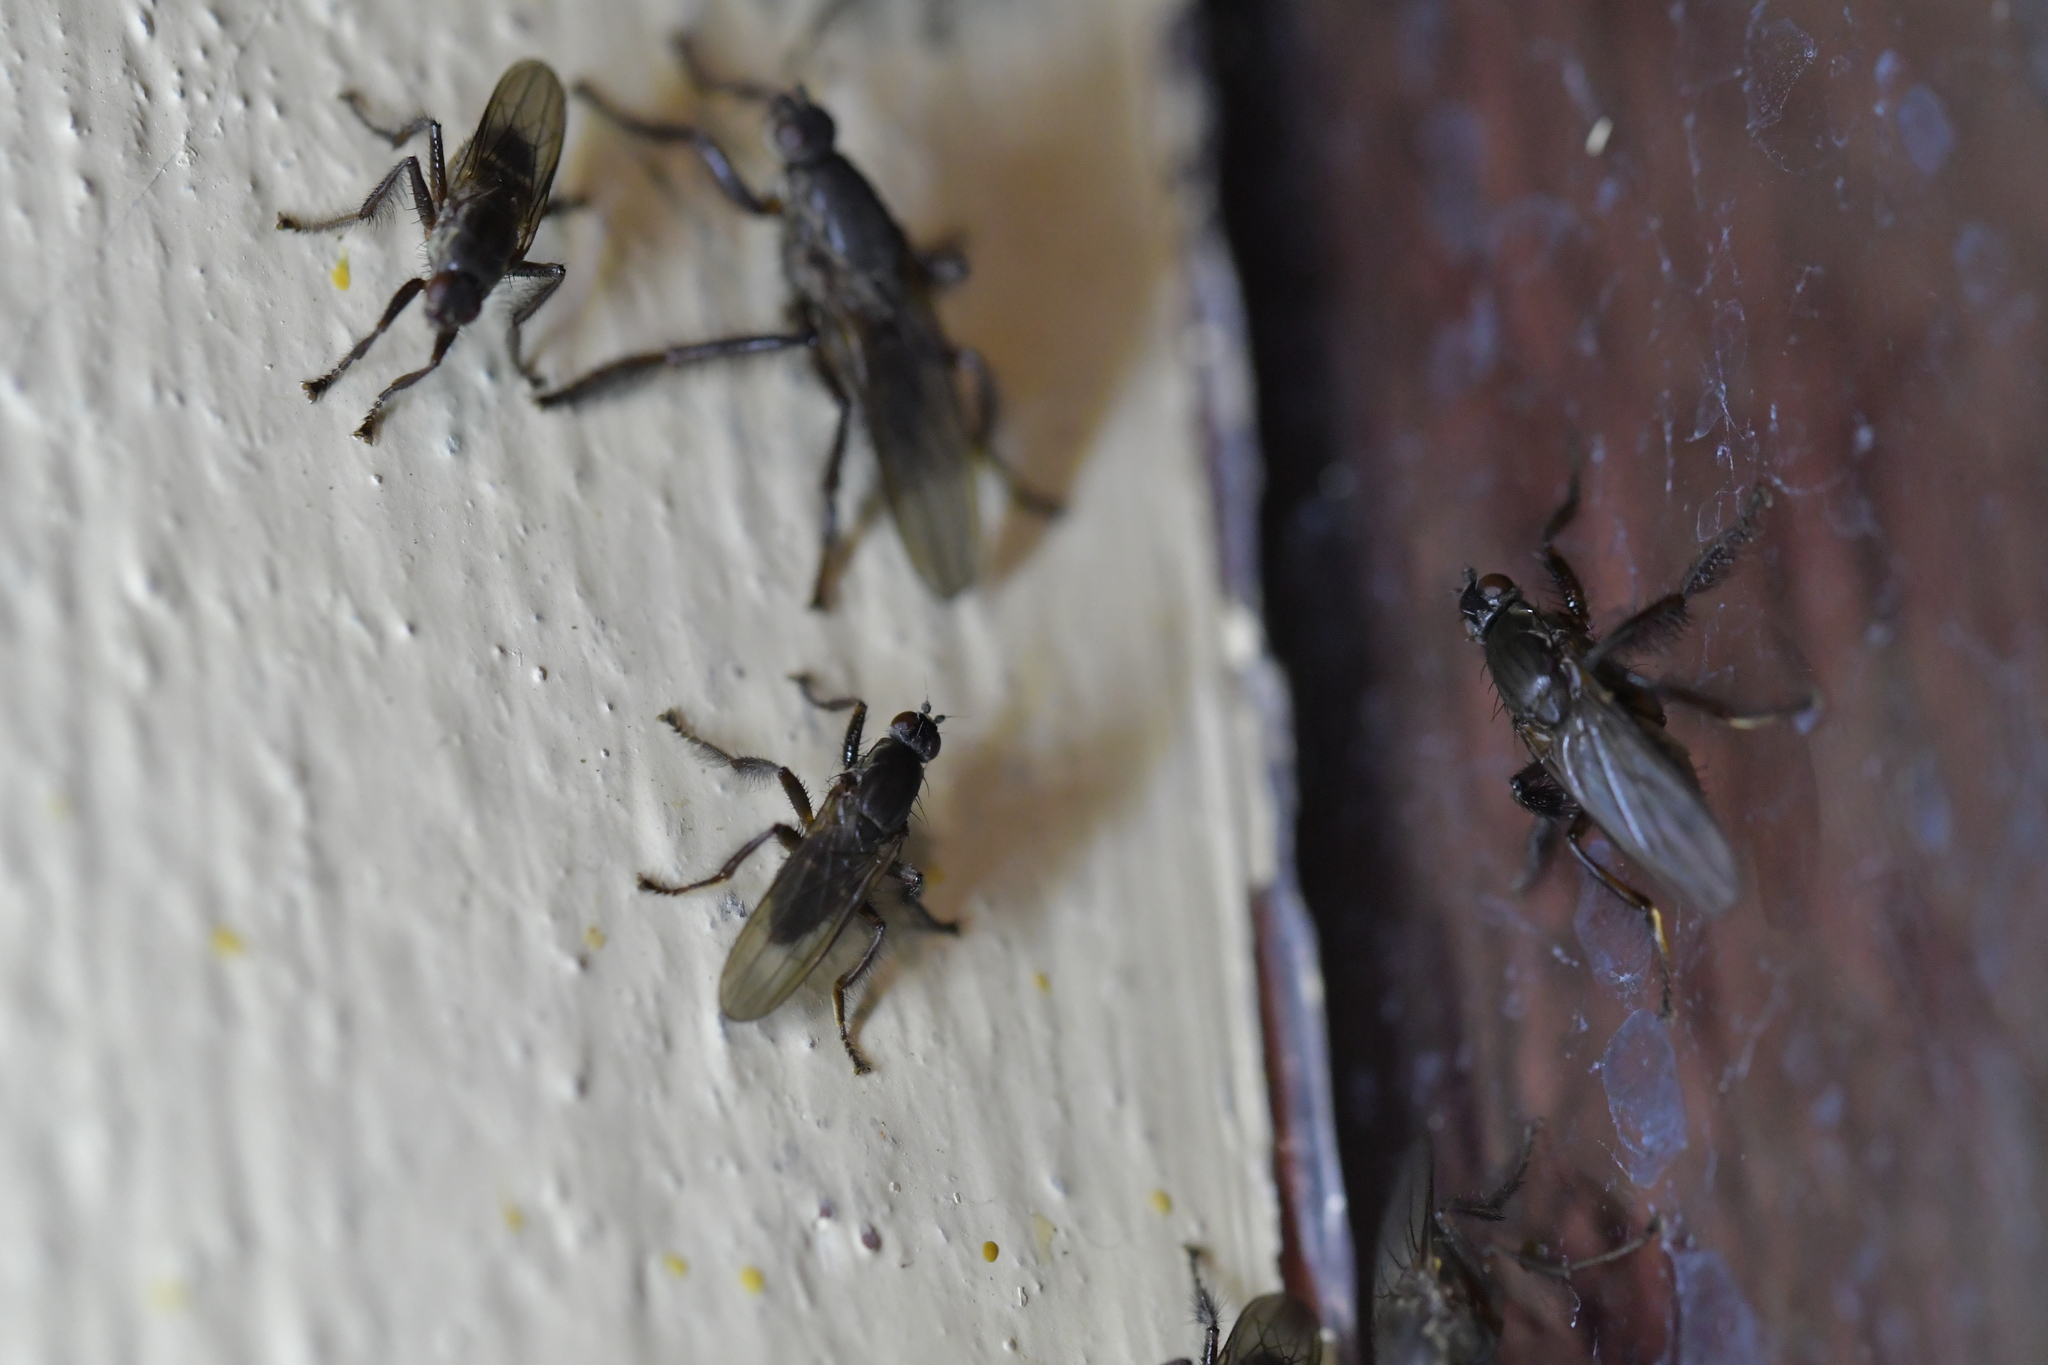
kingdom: Animalia
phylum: Arthropoda
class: Insecta
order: Diptera
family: Coelopidae
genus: Chaetocoelopa
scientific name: Chaetocoelopa littoralis
